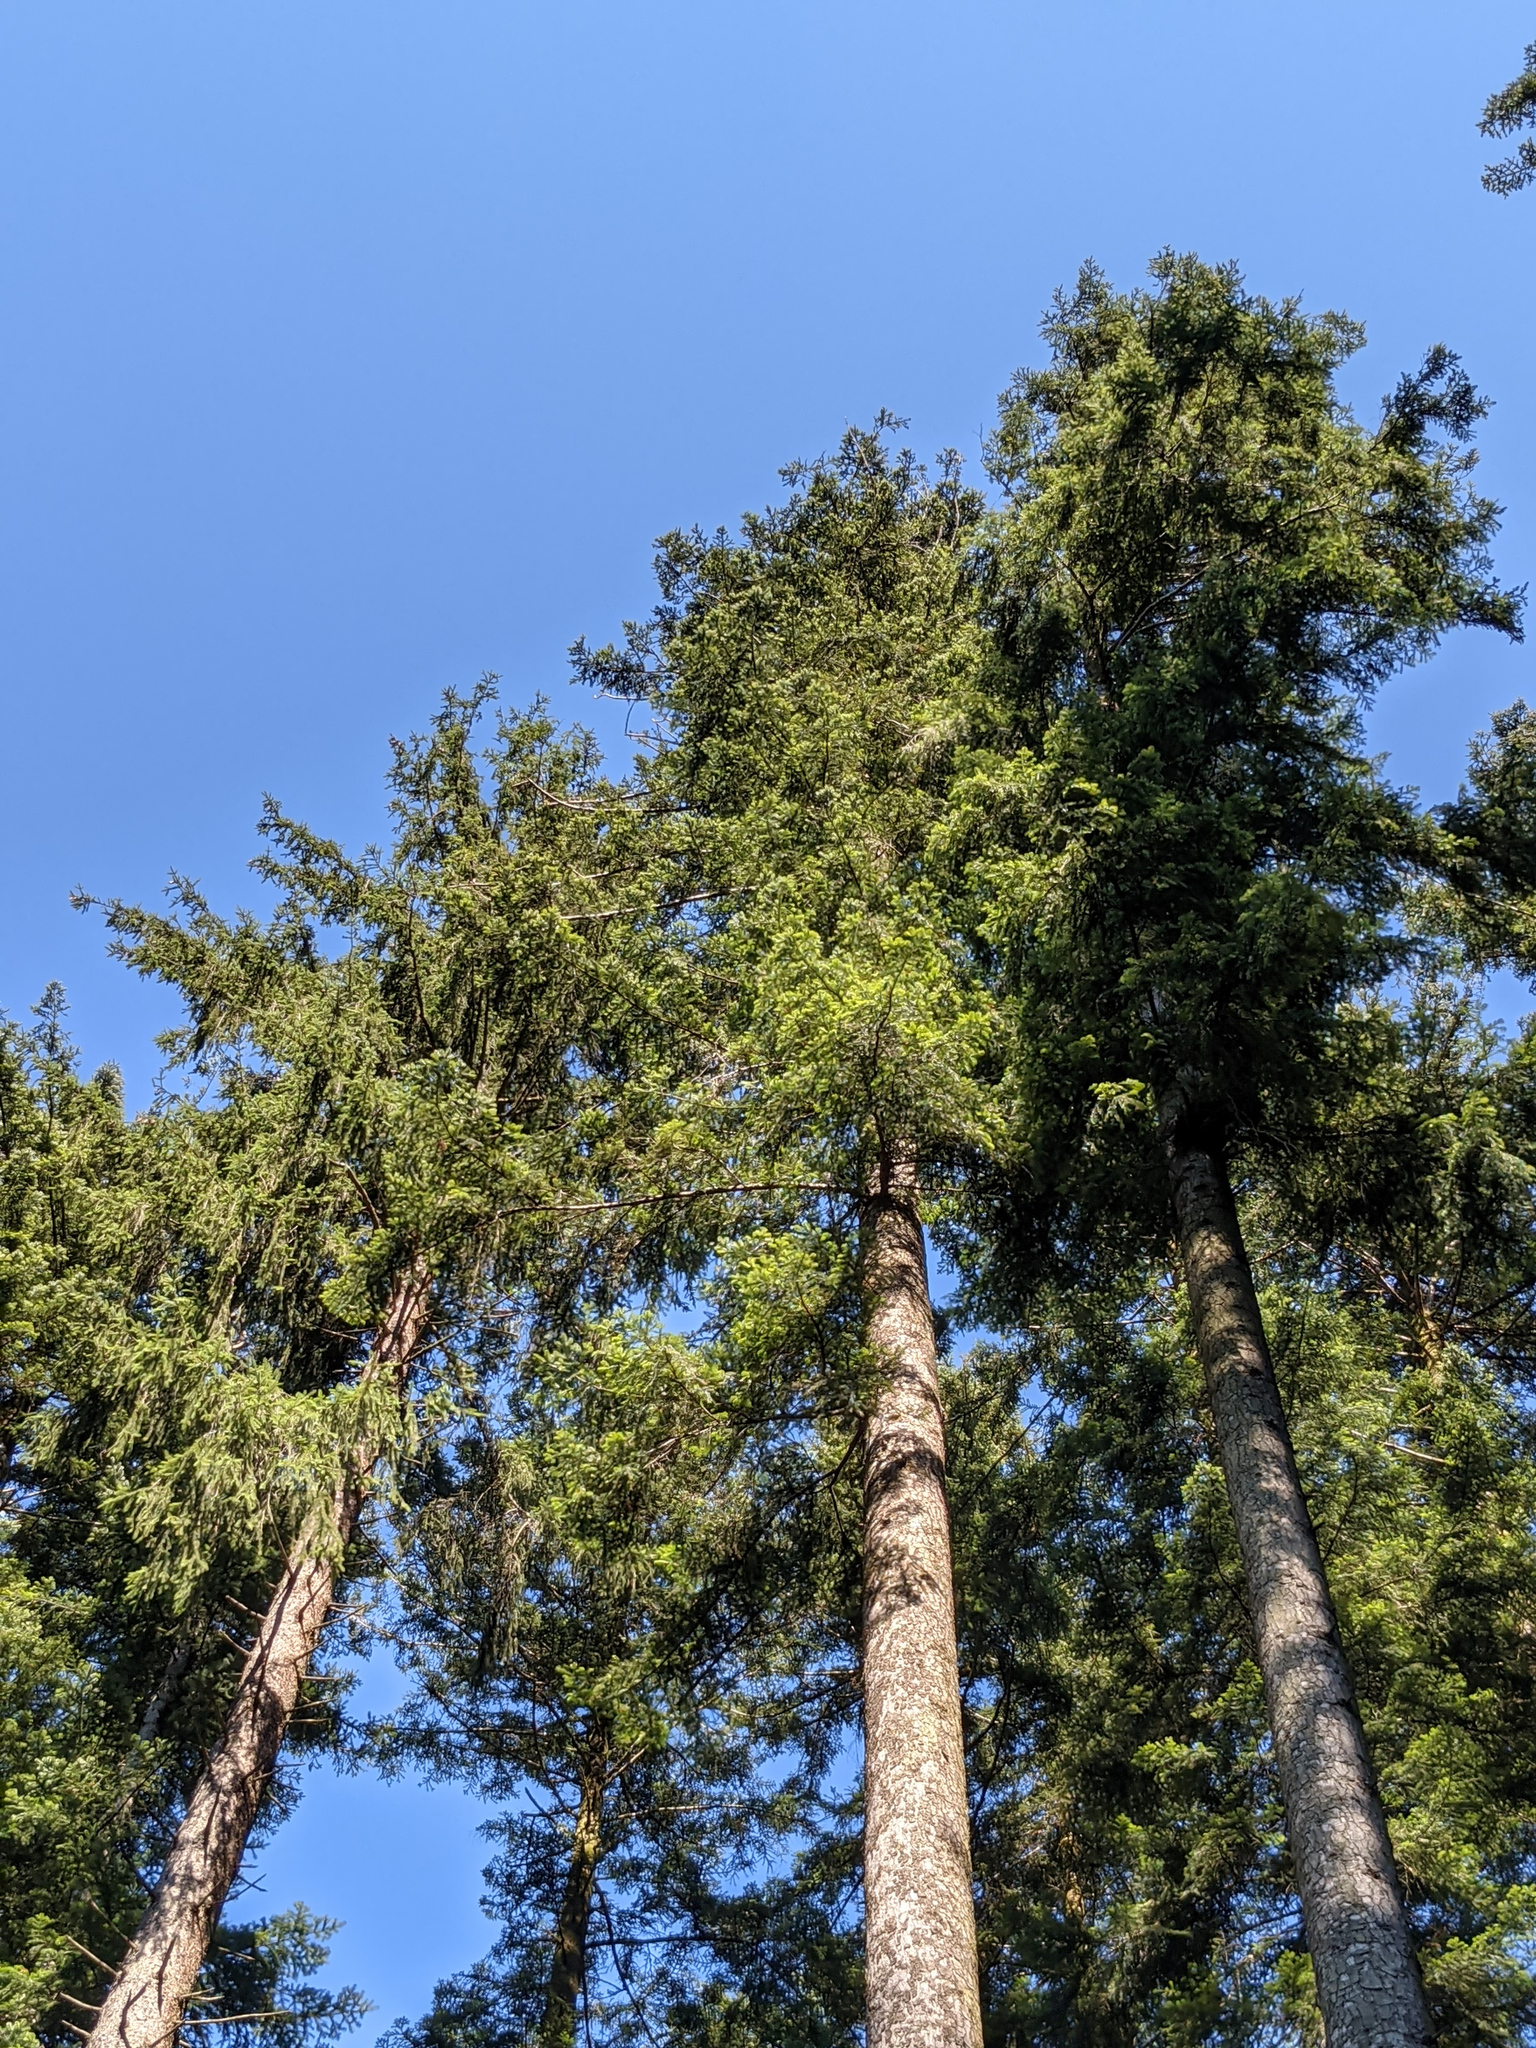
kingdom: Plantae
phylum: Tracheophyta
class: Pinopsida
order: Pinales
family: Pinaceae
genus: Picea
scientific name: Picea abies
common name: Norway spruce
